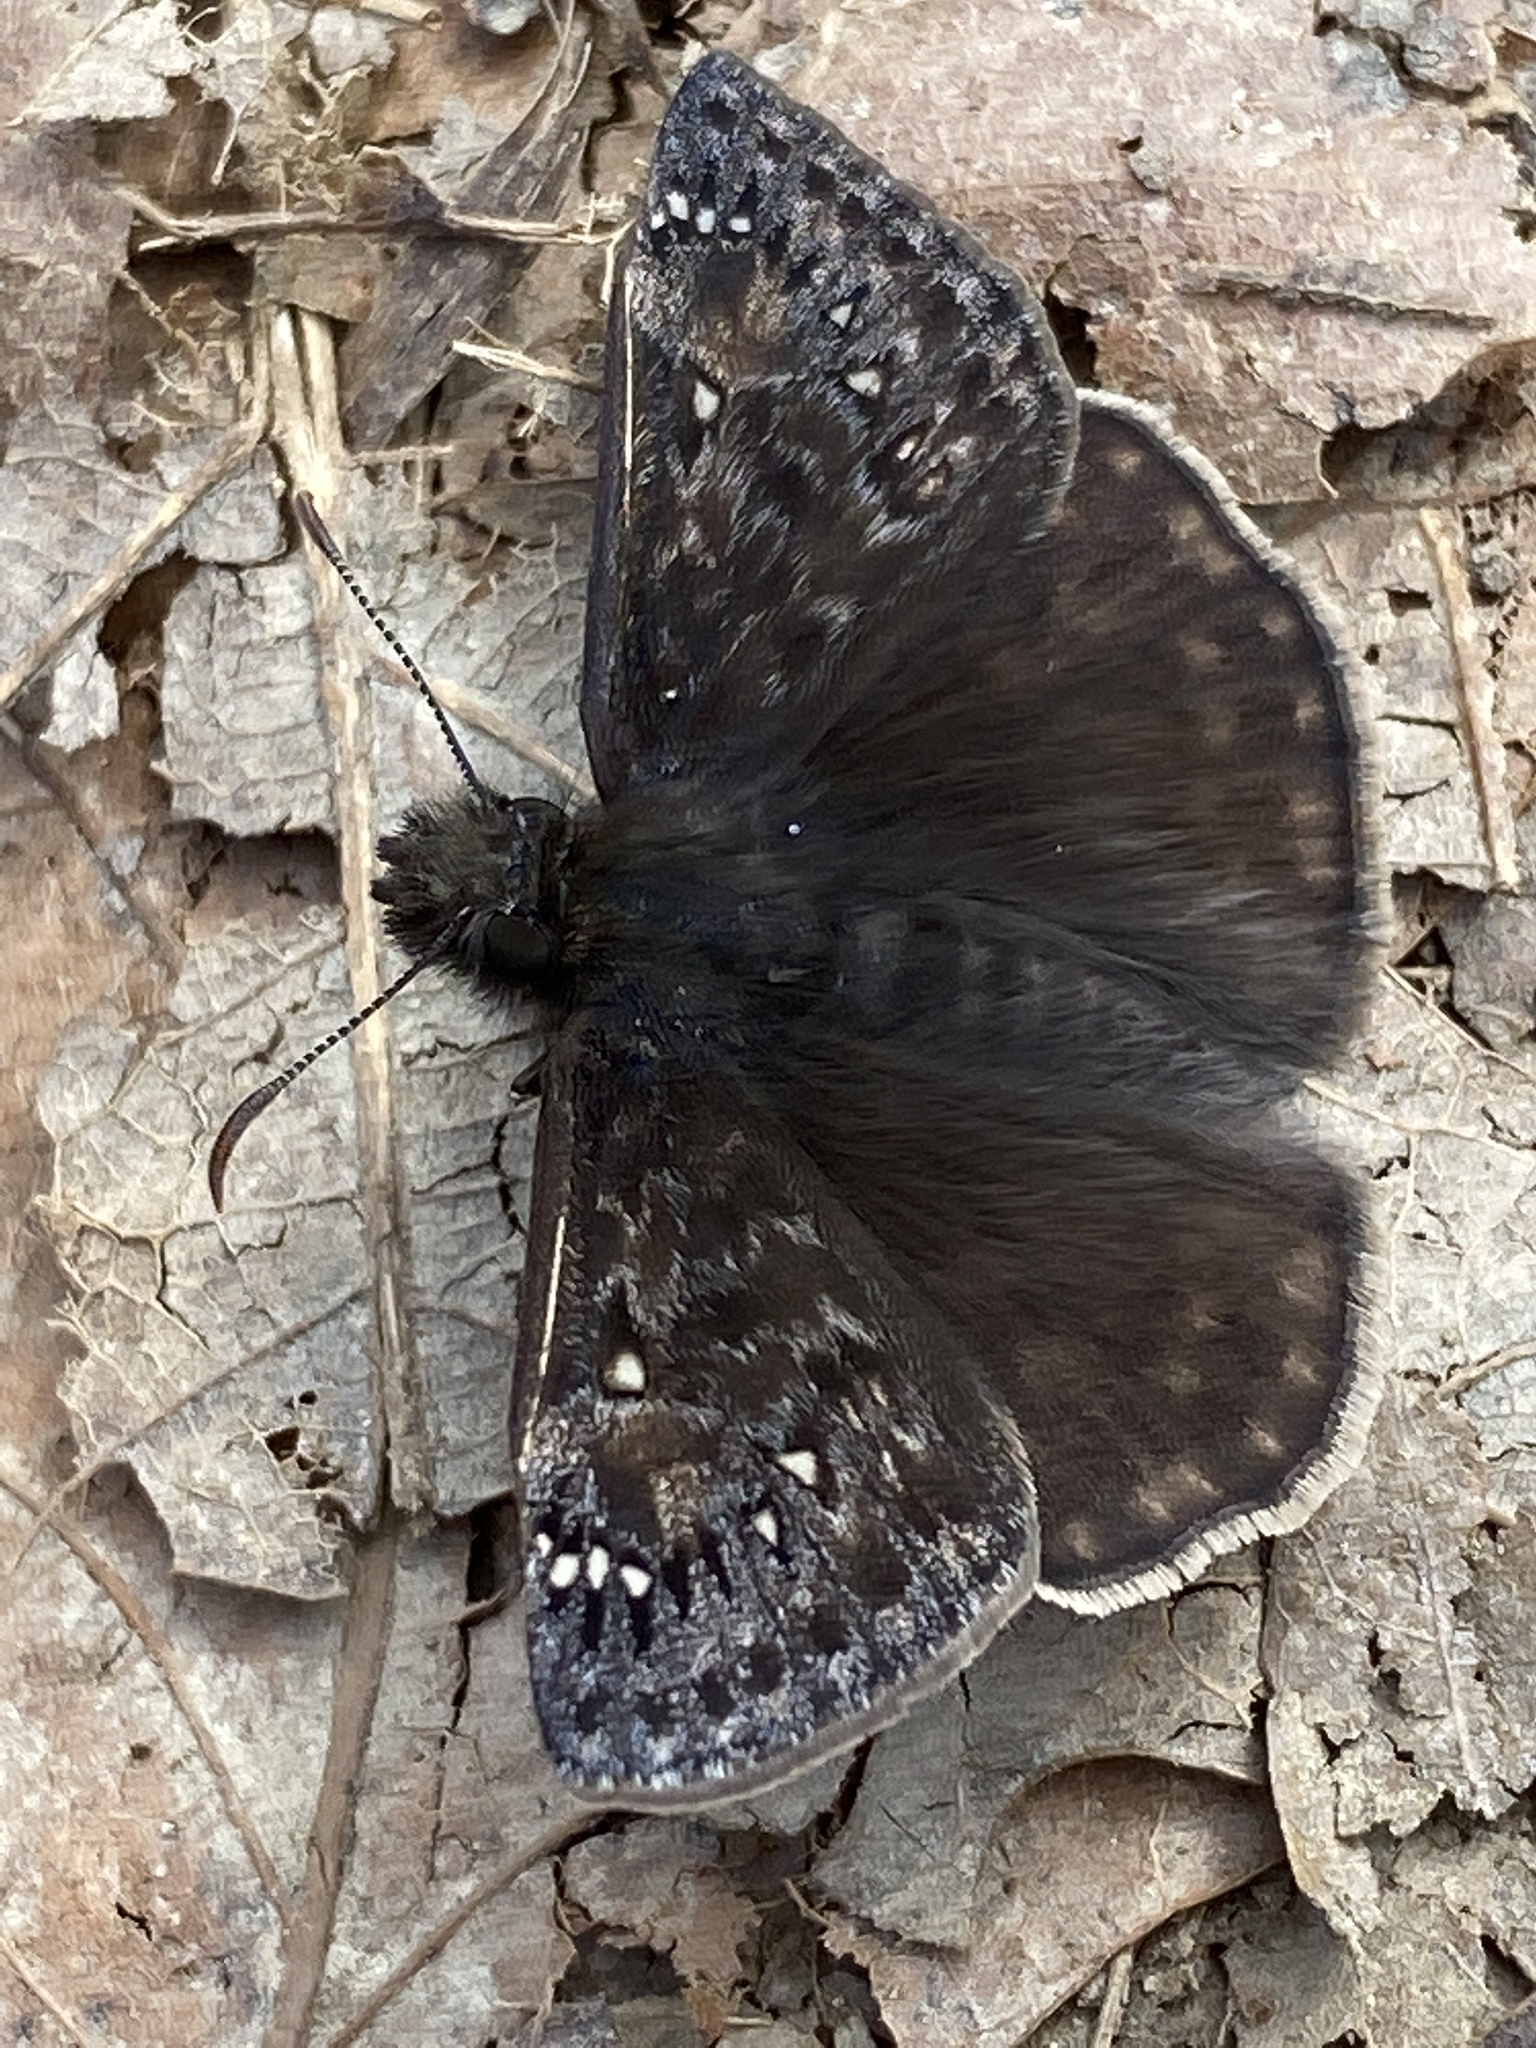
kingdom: Animalia
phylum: Arthropoda
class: Insecta
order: Lepidoptera
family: Hesperiidae
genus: Erynnis
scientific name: Erynnis juvenalis
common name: Juvenal's duskywing
